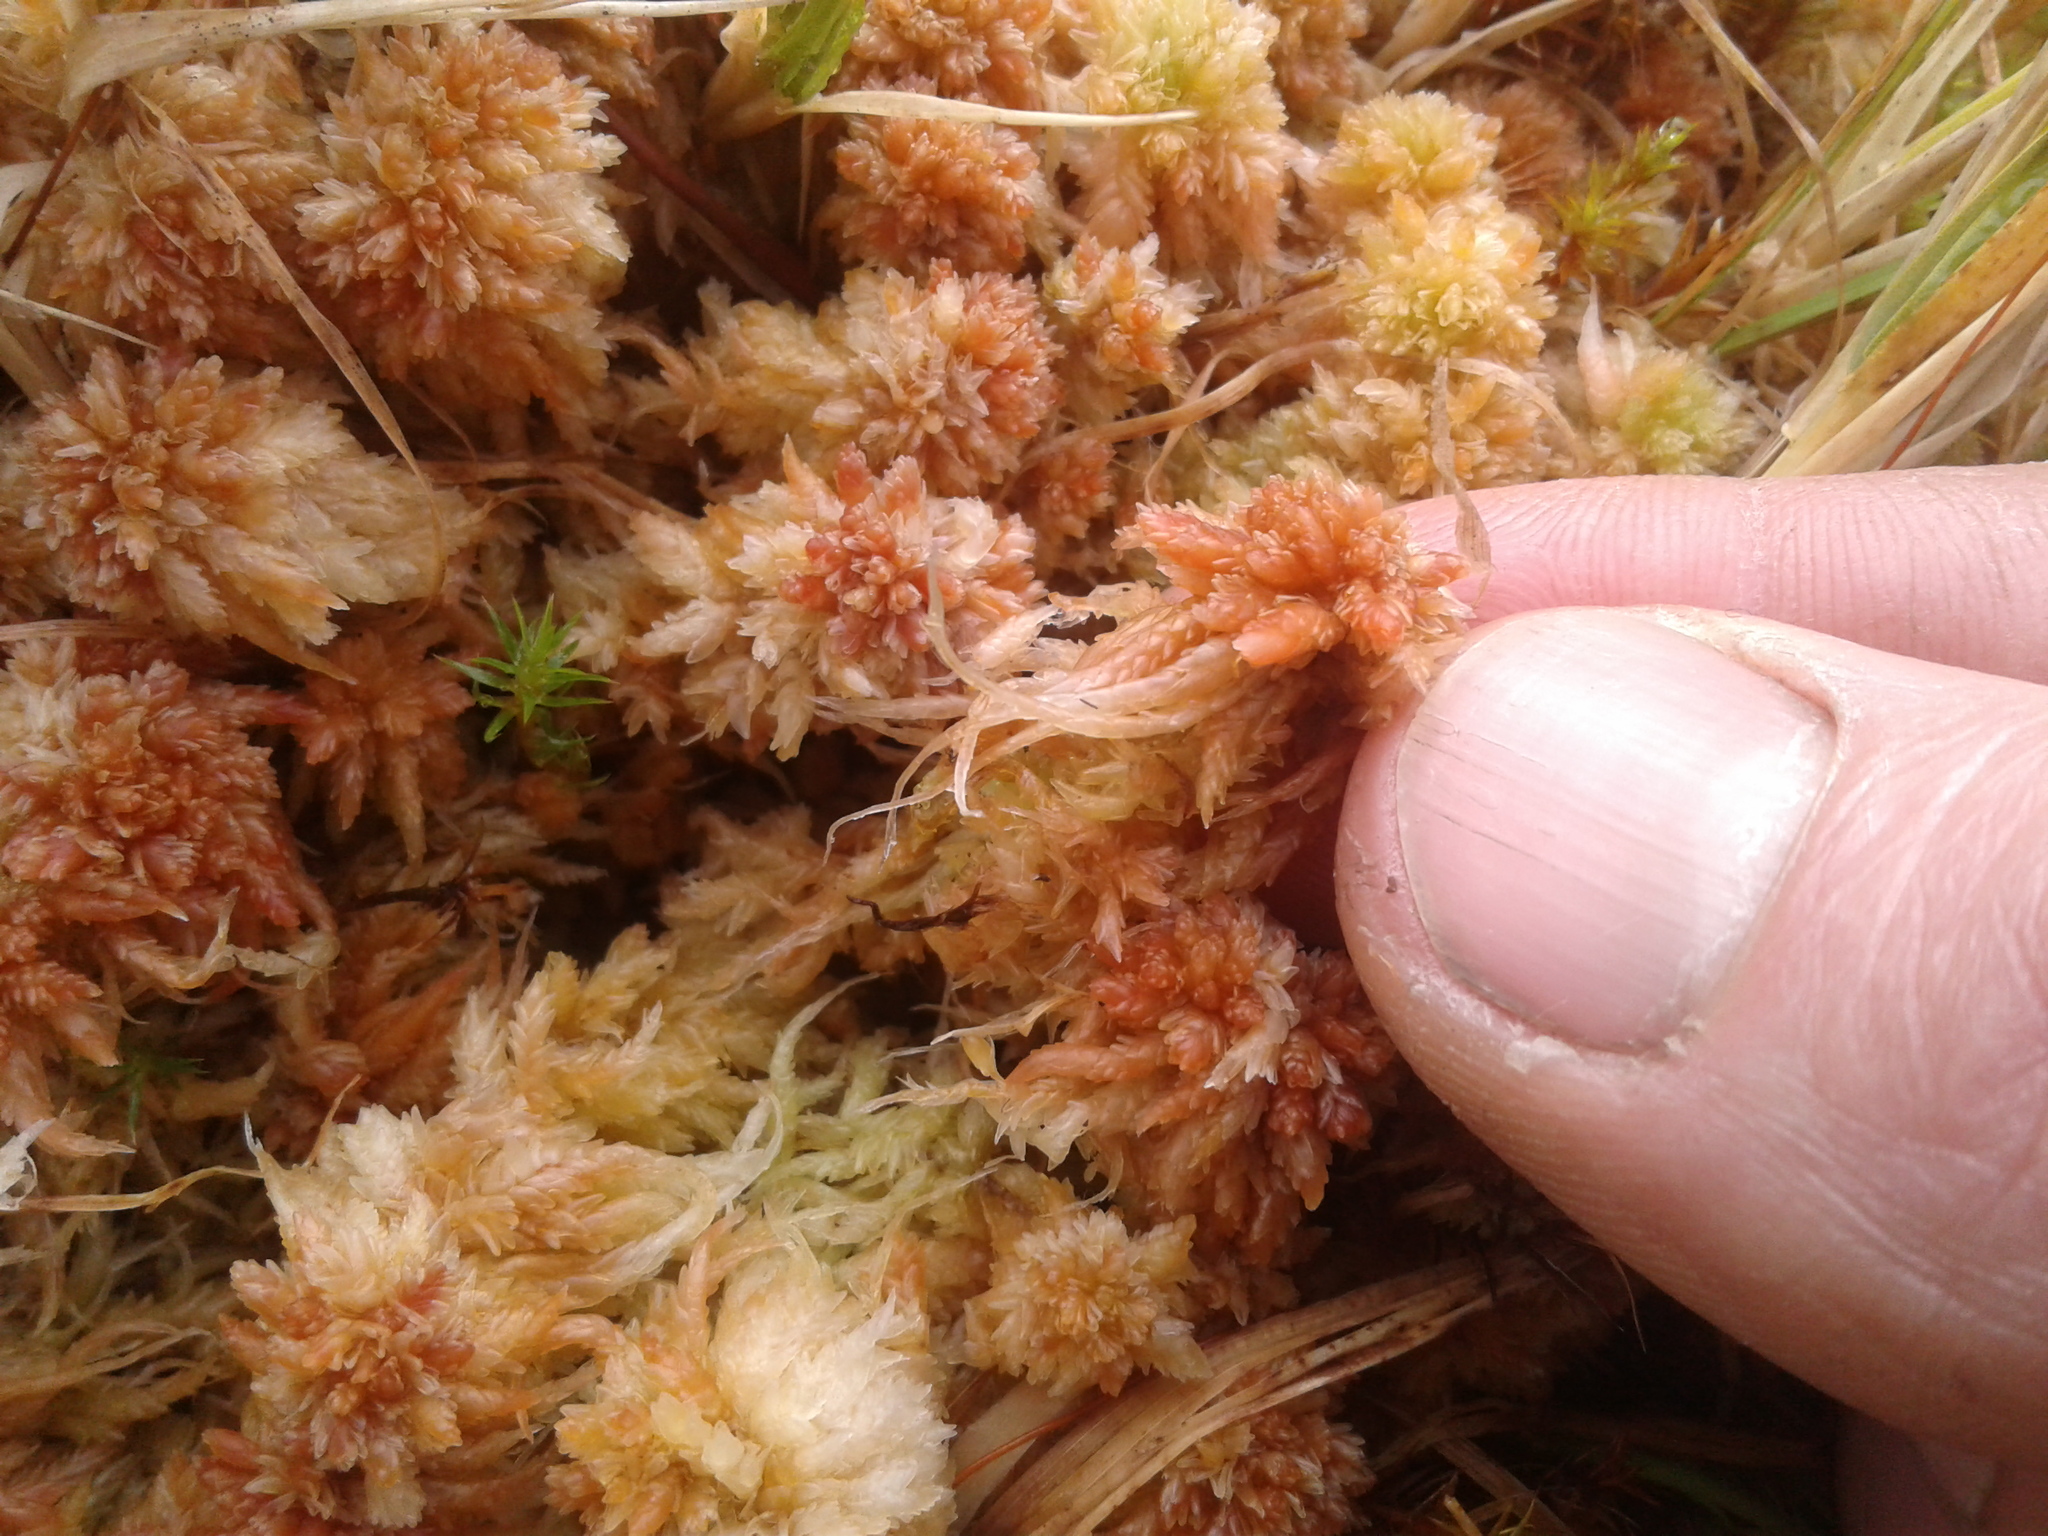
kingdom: Plantae
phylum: Bryophyta
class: Sphagnopsida
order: Sphagnales
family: Sphagnaceae
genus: Sphagnum
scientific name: Sphagnum cristatum
